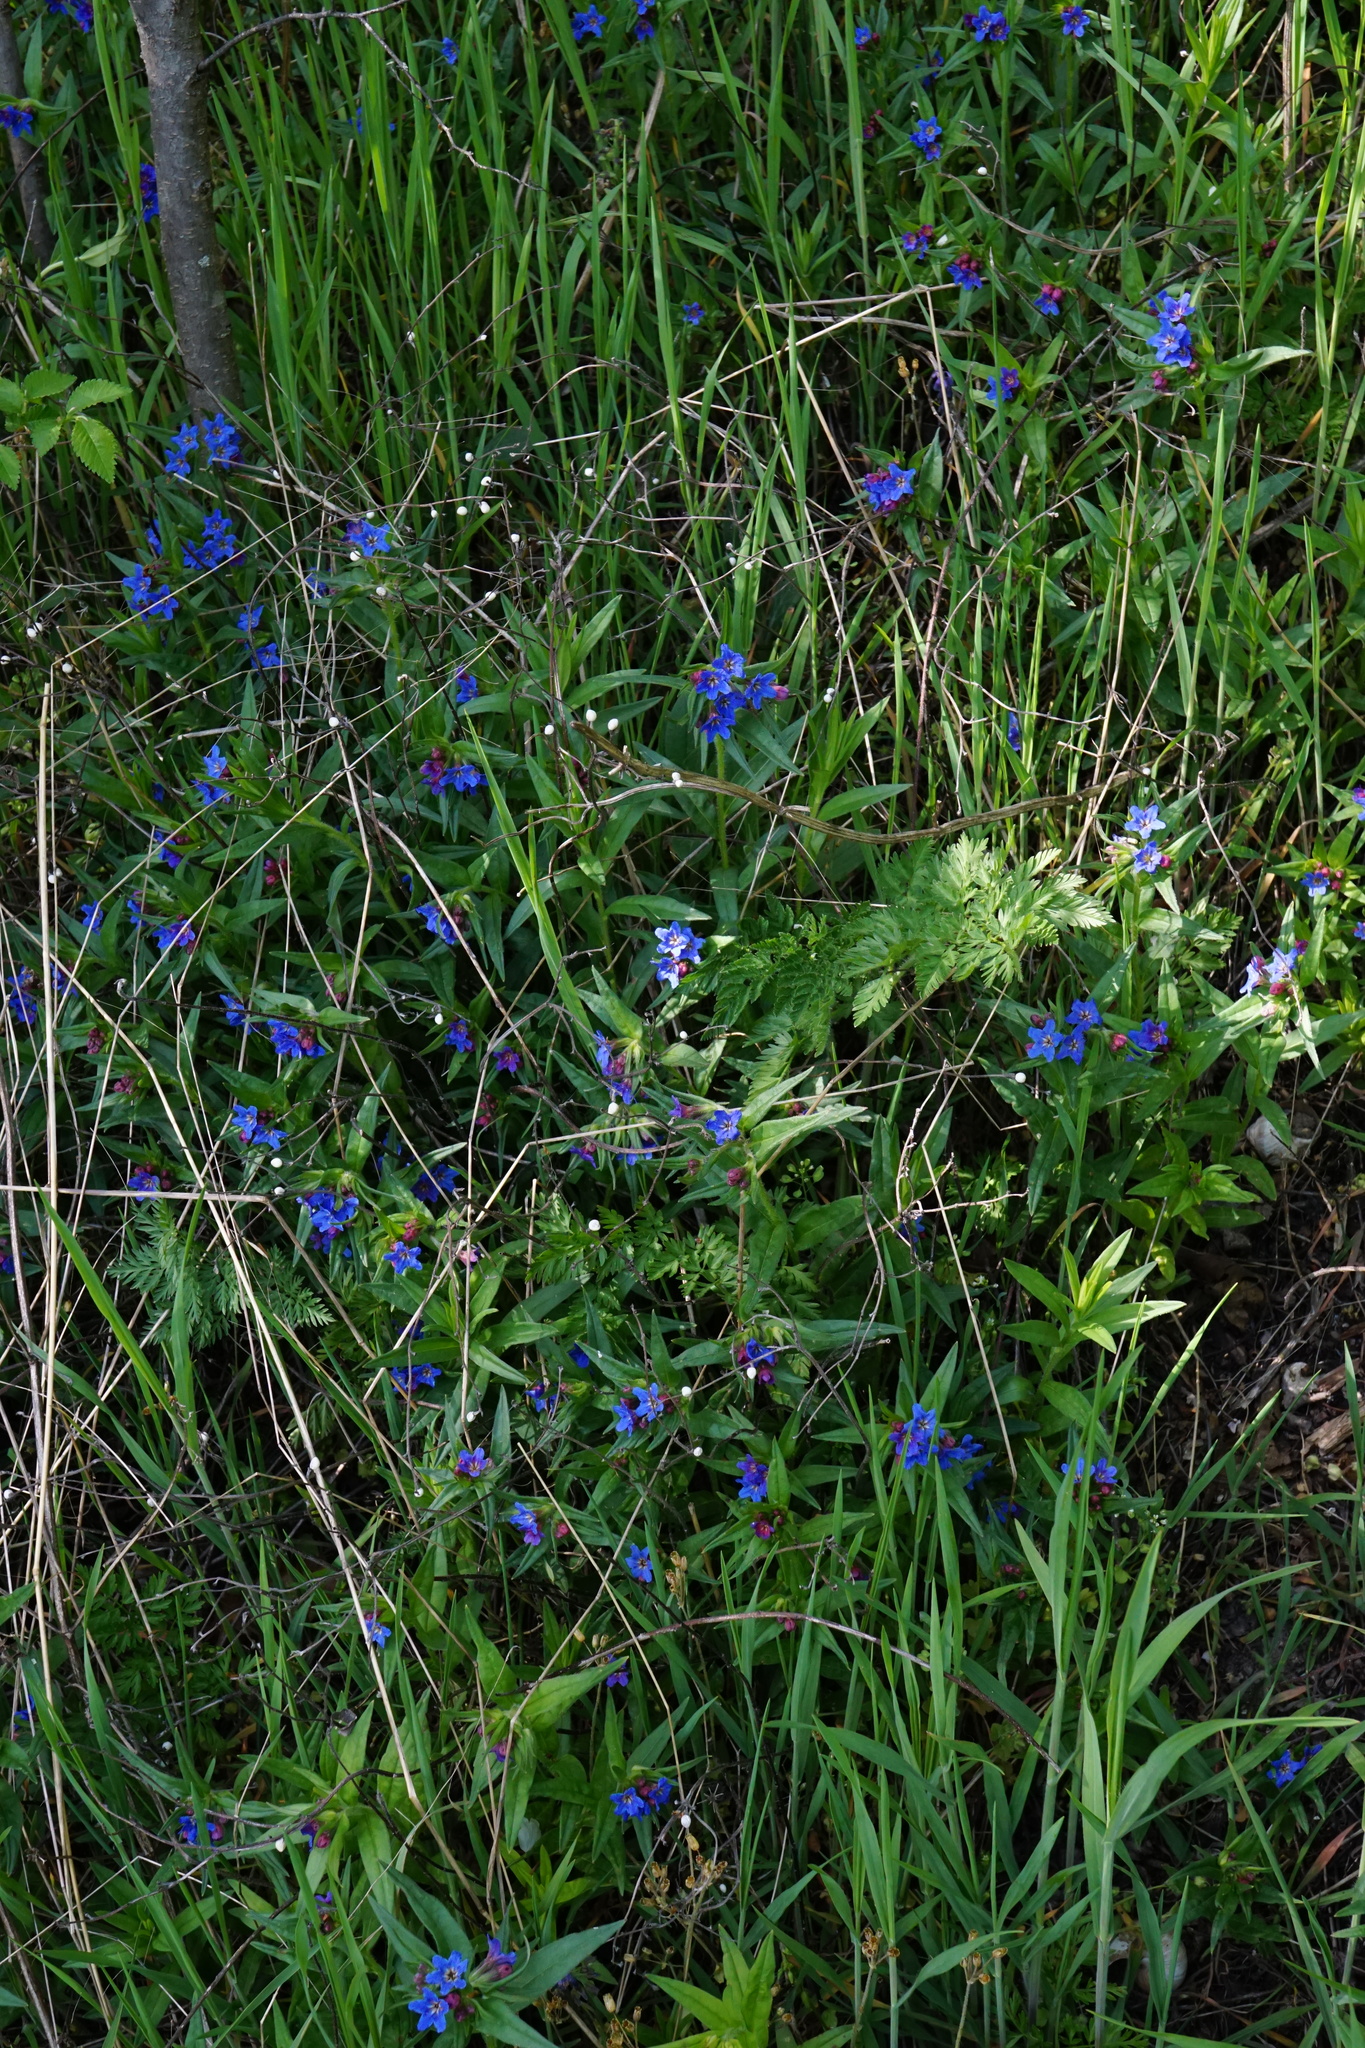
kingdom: Plantae
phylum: Tracheophyta
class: Magnoliopsida
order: Boraginales
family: Boraginaceae
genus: Aegonychon
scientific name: Aegonychon purpurocaeruleum
